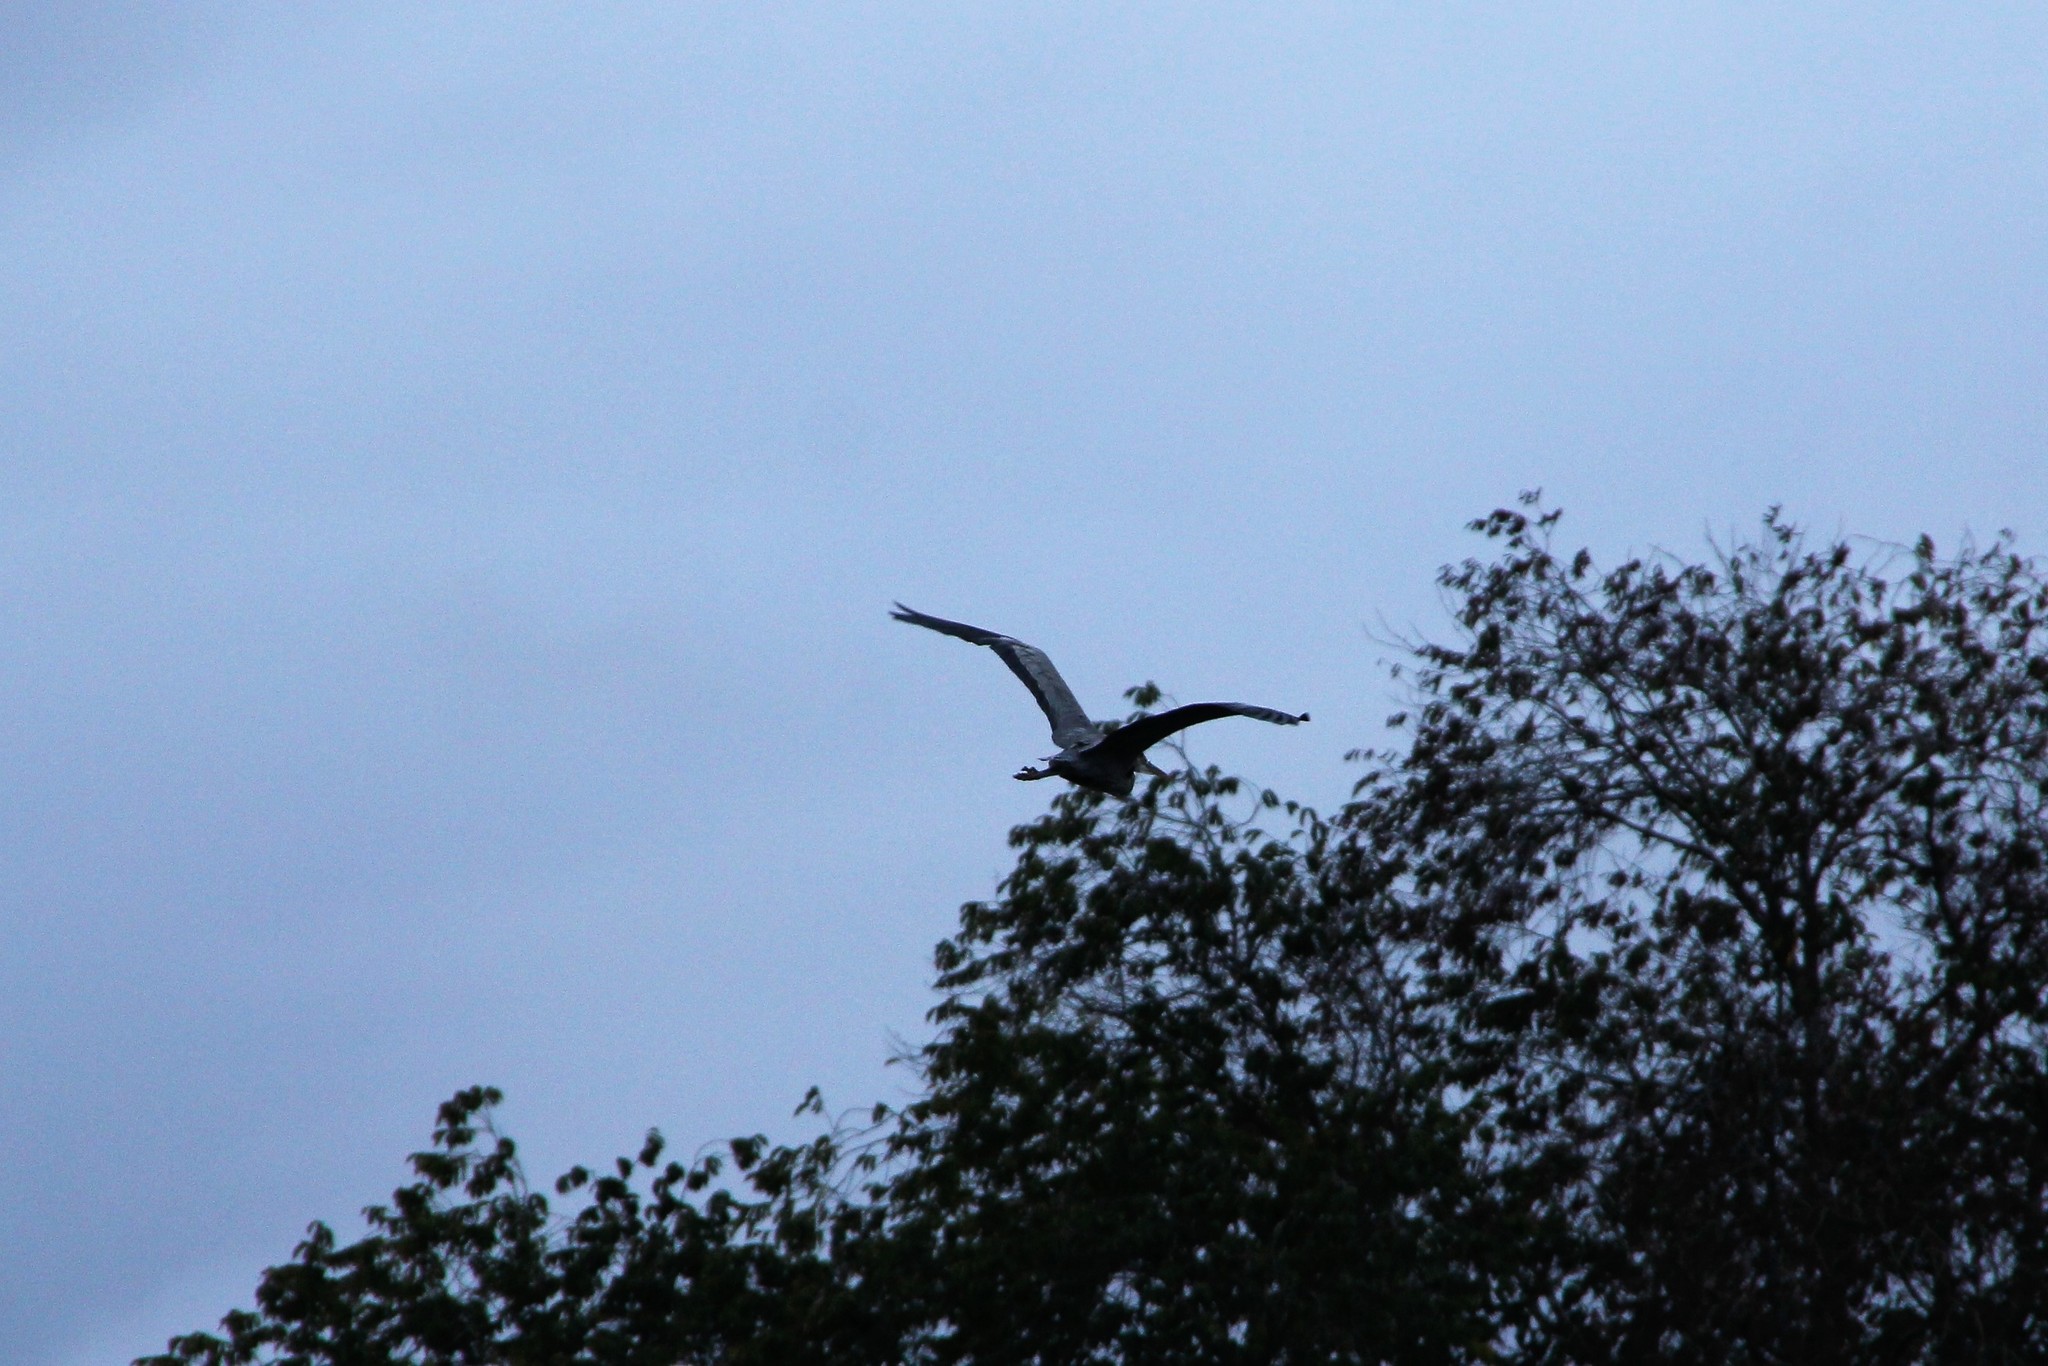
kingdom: Animalia
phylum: Chordata
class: Aves
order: Pelecaniformes
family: Ardeidae
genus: Ardea
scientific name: Ardea cinerea
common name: Grey heron
